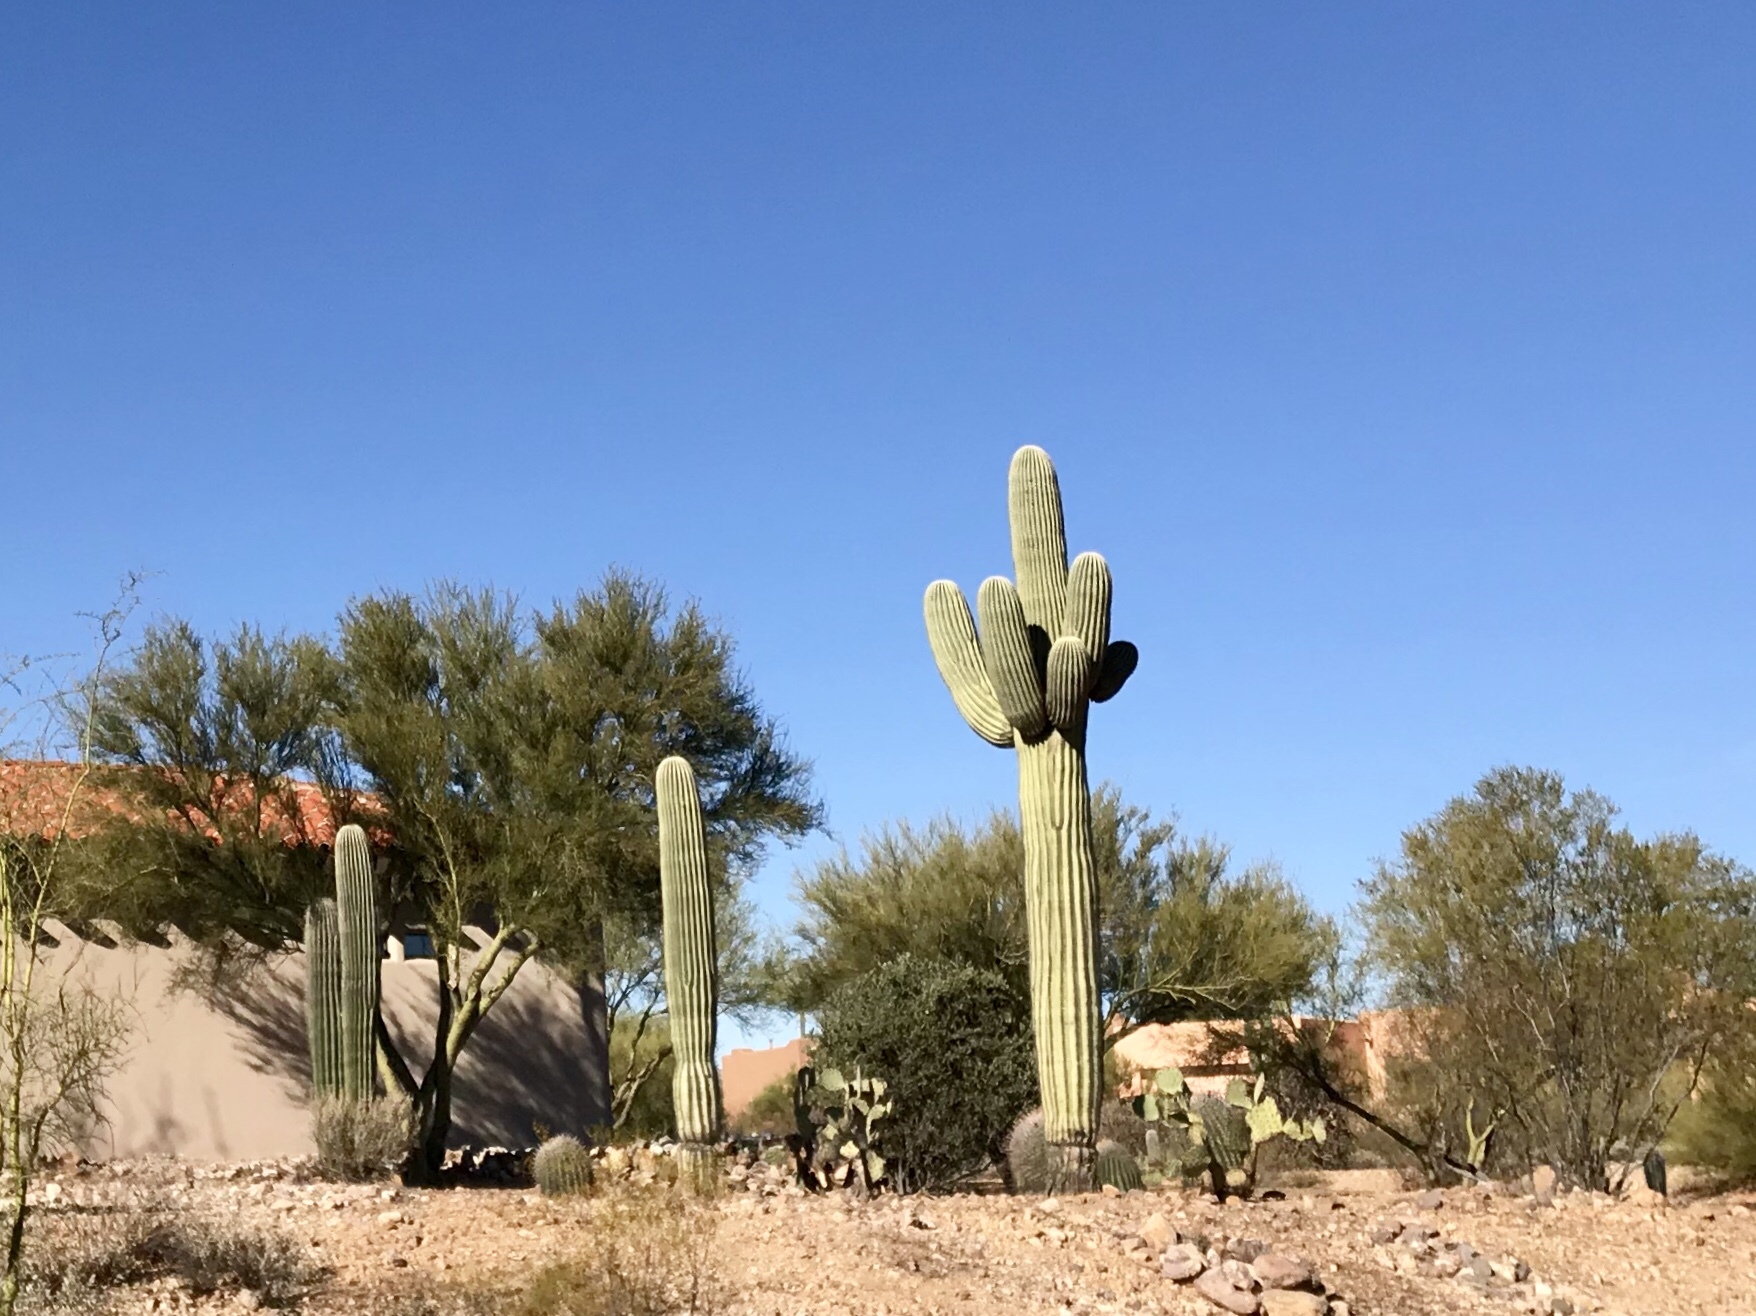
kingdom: Plantae
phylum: Tracheophyta
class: Magnoliopsida
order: Caryophyllales
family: Cactaceae
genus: Carnegiea
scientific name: Carnegiea gigantea
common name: Saguaro
